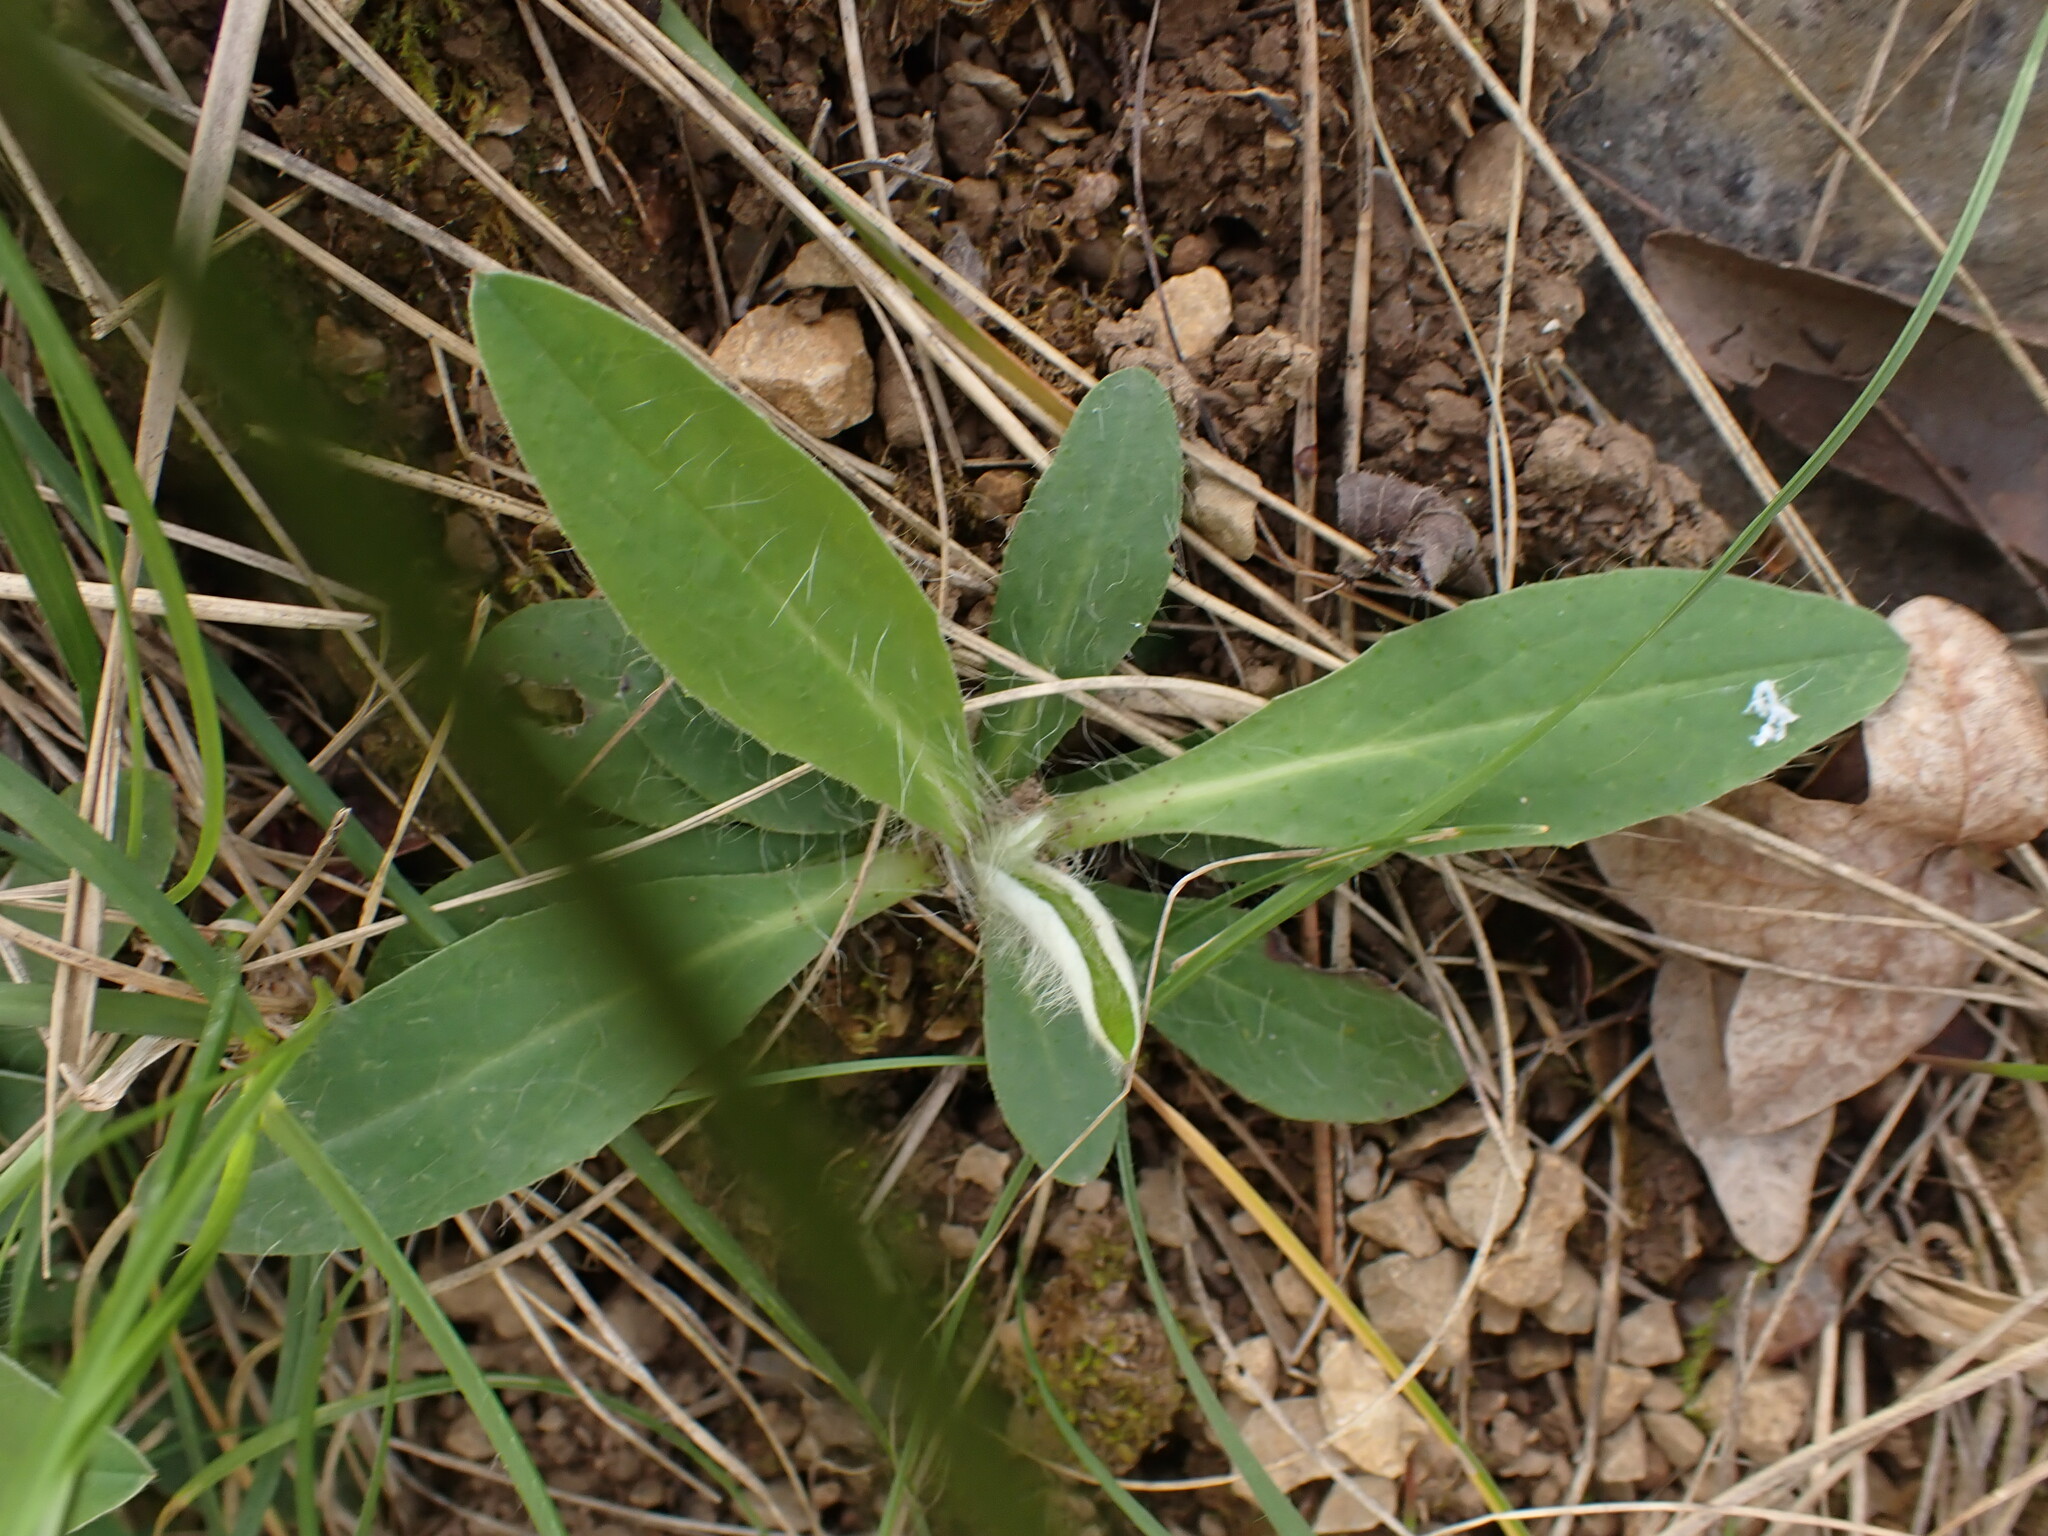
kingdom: Plantae
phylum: Tracheophyta
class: Magnoliopsida
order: Asterales
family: Asteraceae
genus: Pilosella
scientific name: Pilosella officinarum
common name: Mouse-ear hawkweed
